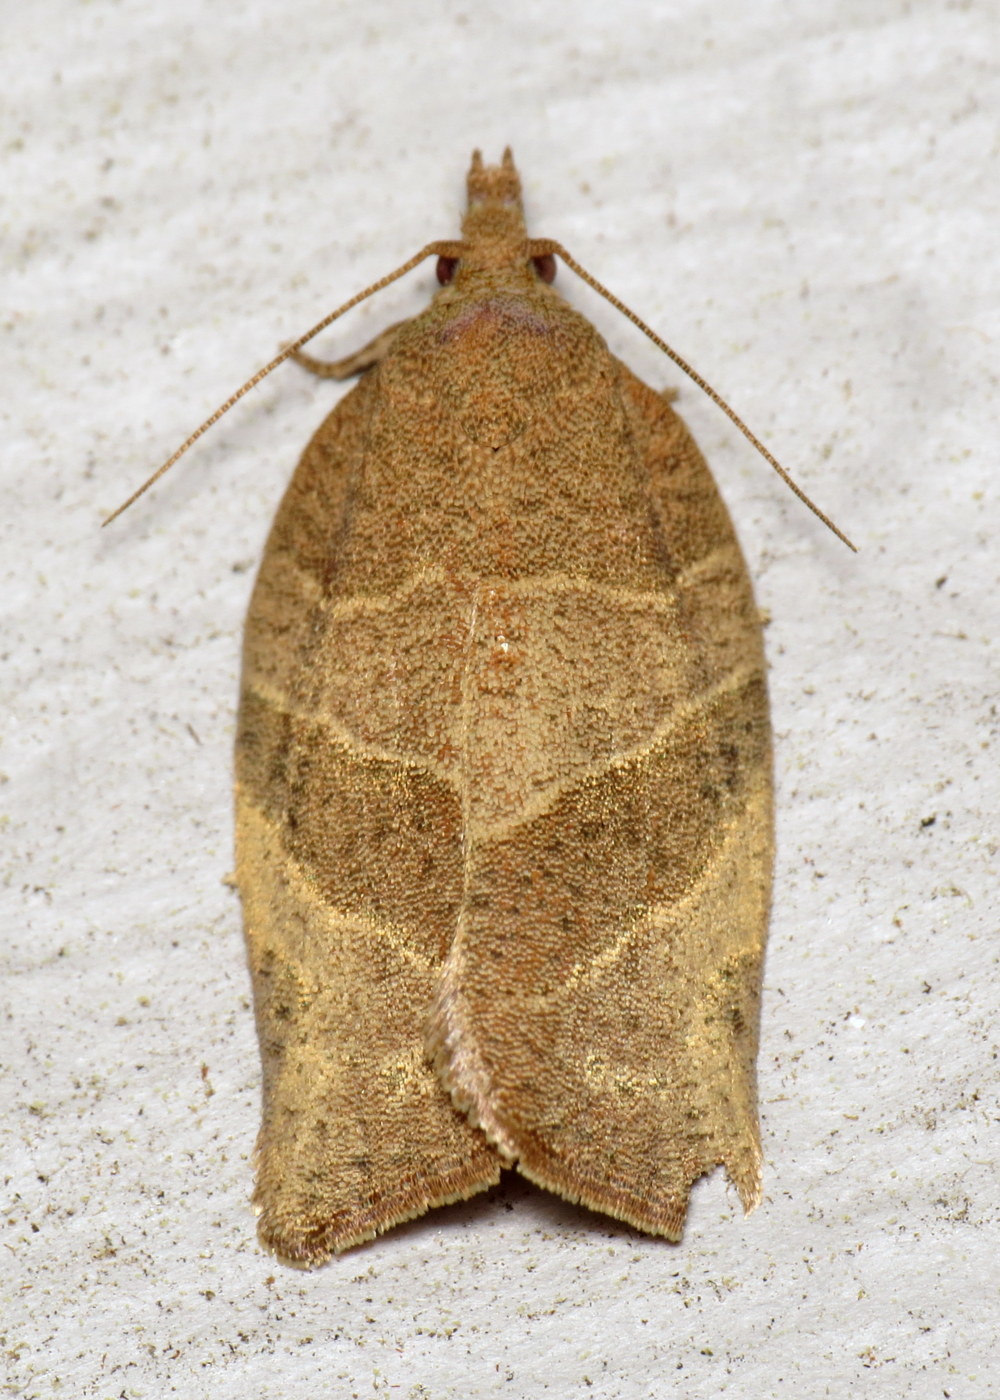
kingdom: Animalia
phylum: Arthropoda
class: Insecta
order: Lepidoptera
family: Tortricidae
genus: Pandemis
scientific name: Pandemis limitata
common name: Three-lined leafroller moth
